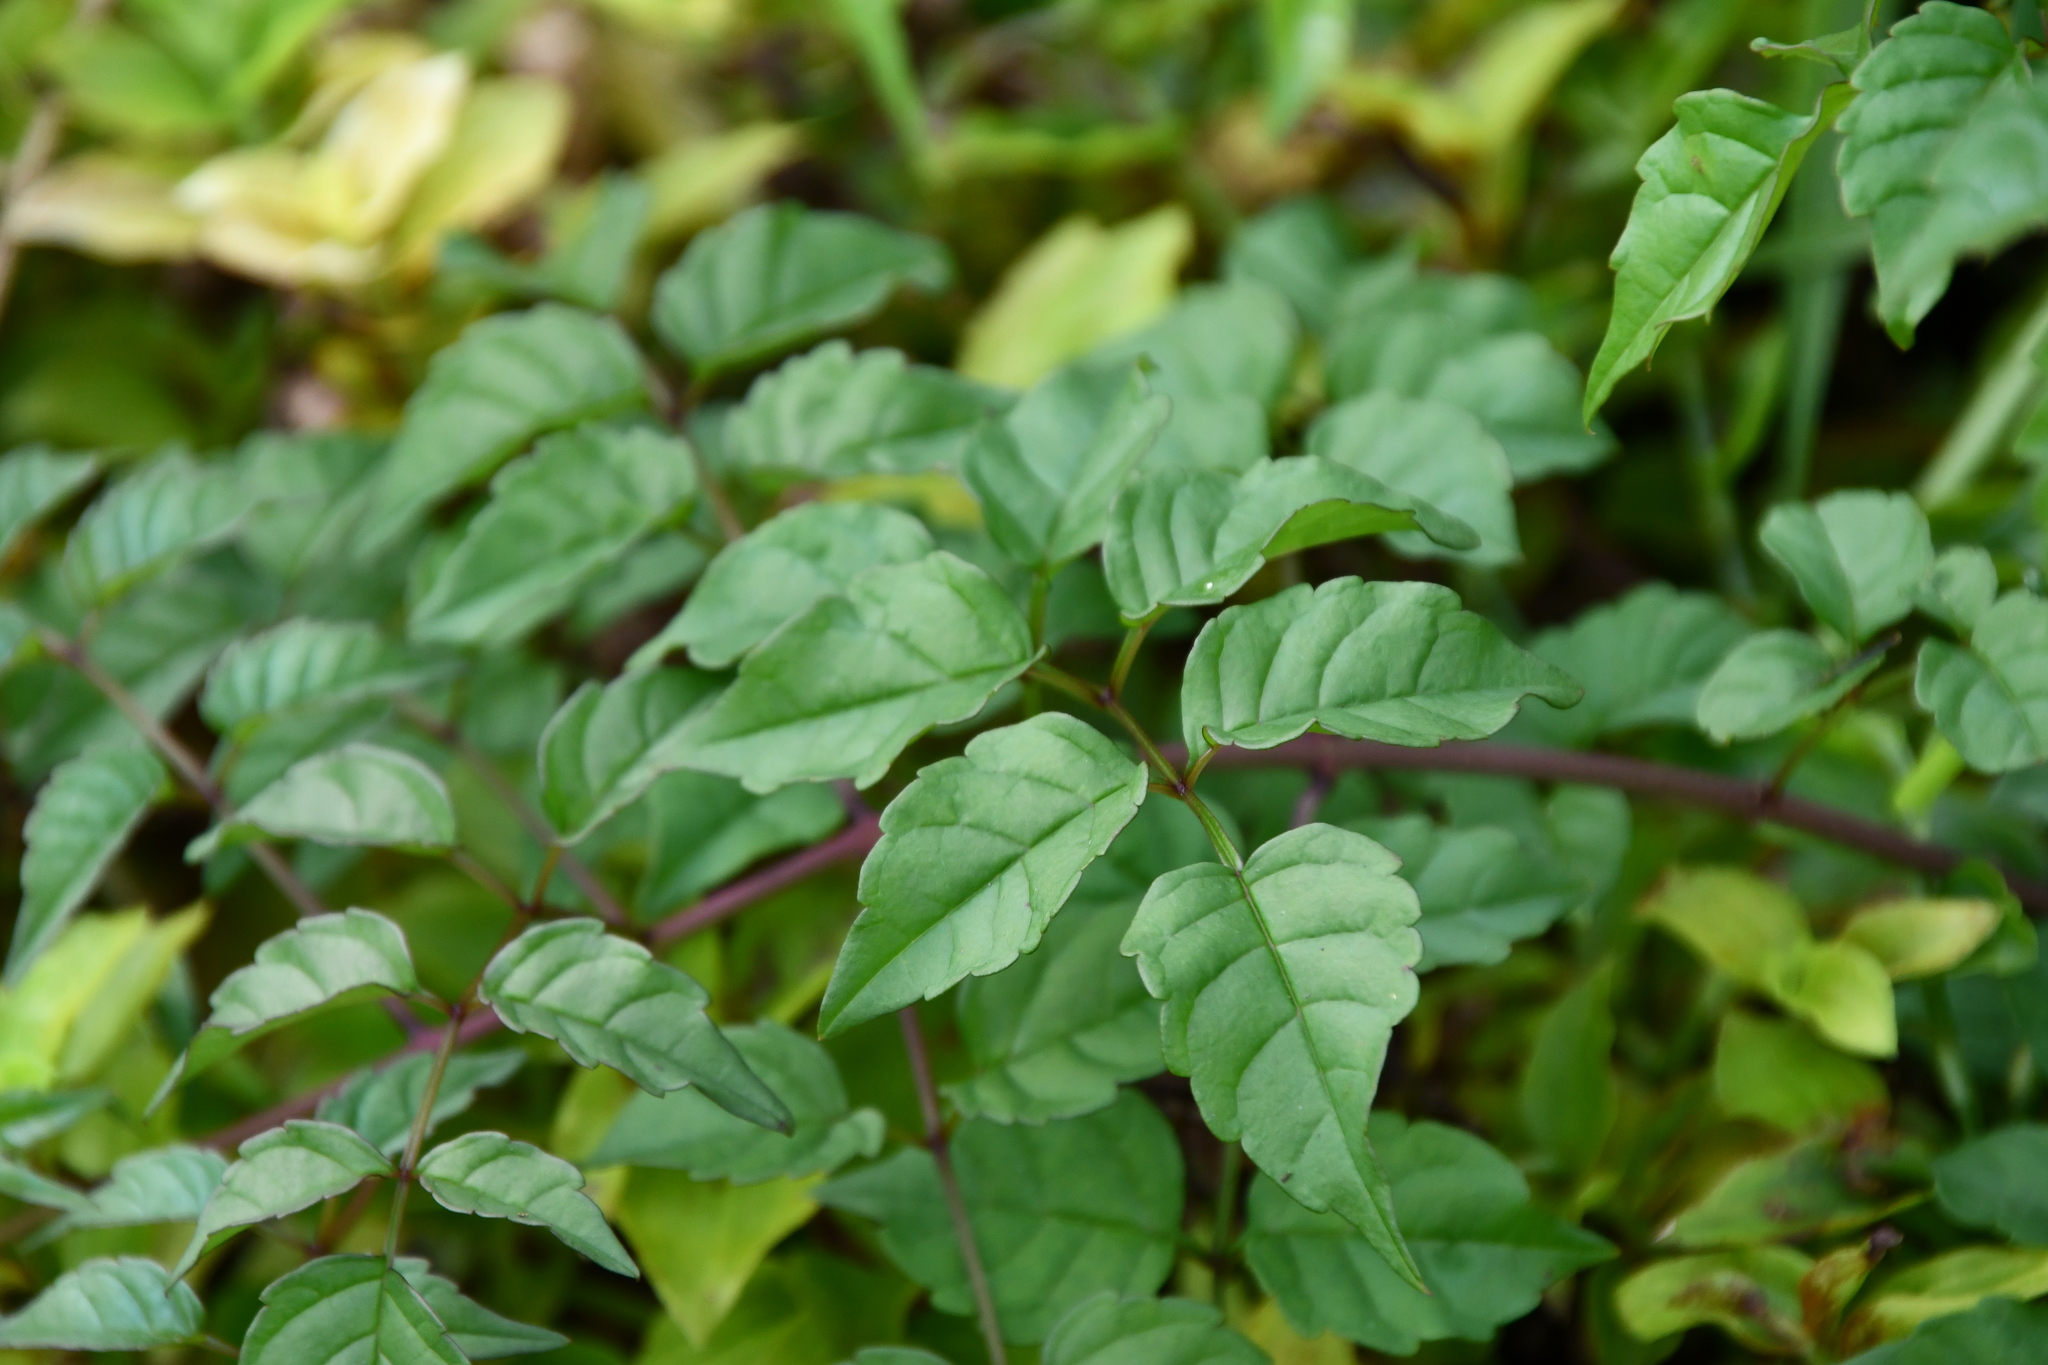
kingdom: Plantae
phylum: Tracheophyta
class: Magnoliopsida
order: Lamiales
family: Bignoniaceae
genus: Podranea
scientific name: Podranea ricasoliana
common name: Zimbabwe creeper
